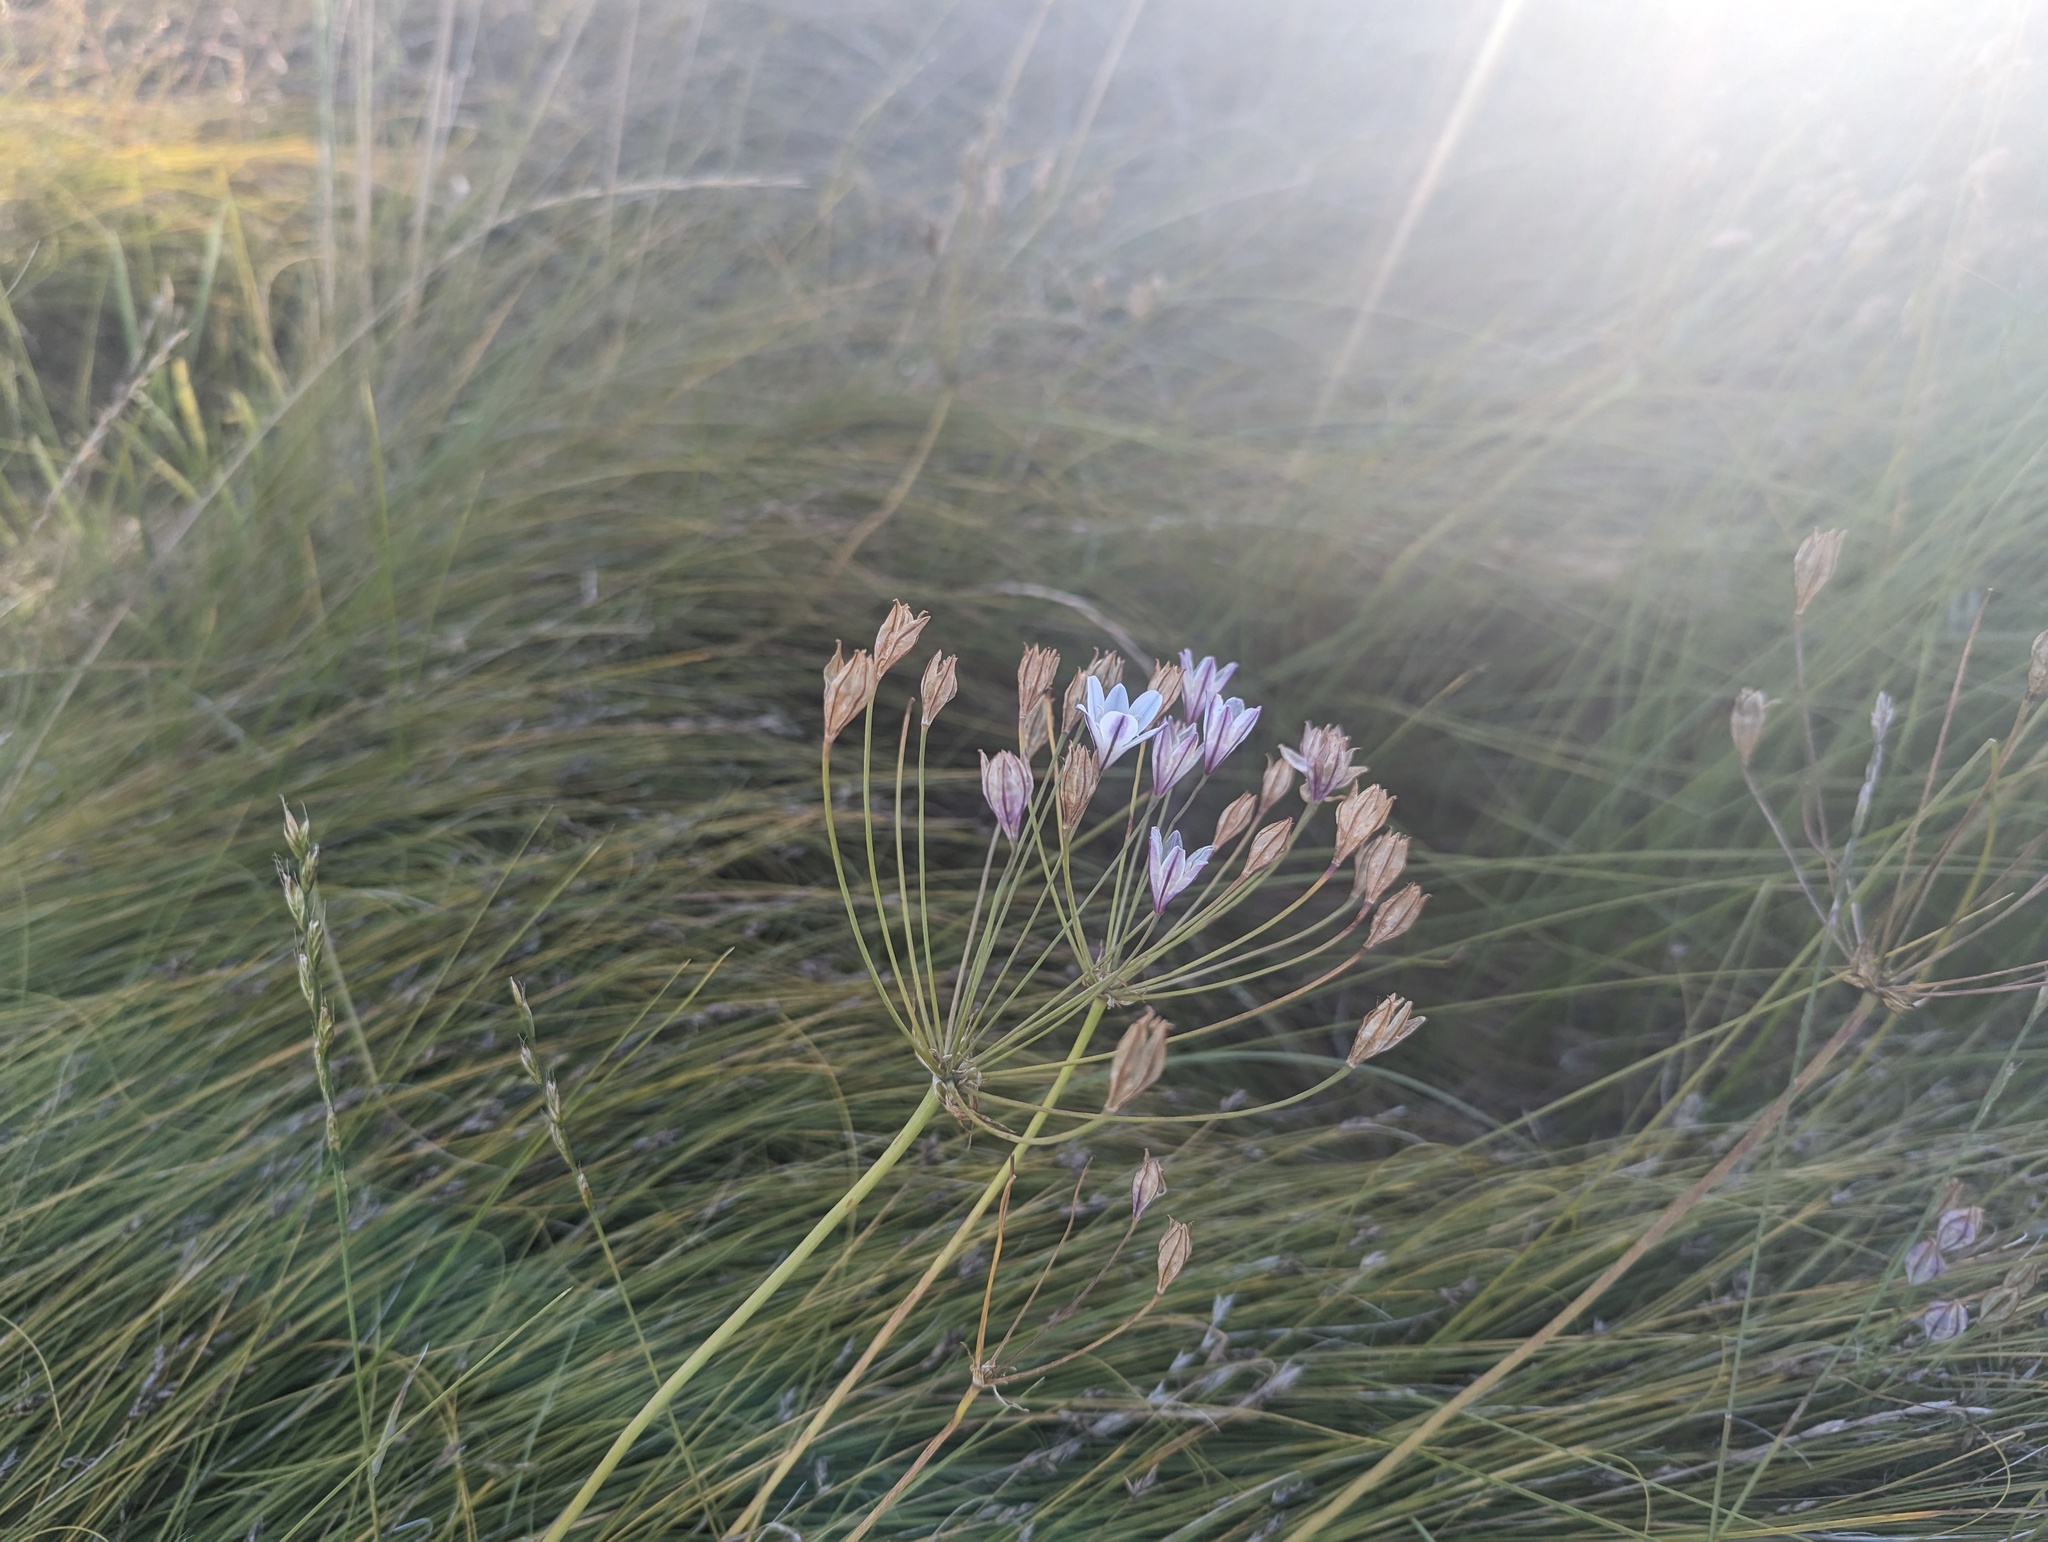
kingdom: Plantae
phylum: Tracheophyta
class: Liliopsida
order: Asparagales
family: Asparagaceae
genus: Triteleia
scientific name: Triteleia laxa
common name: Triplet-lily
